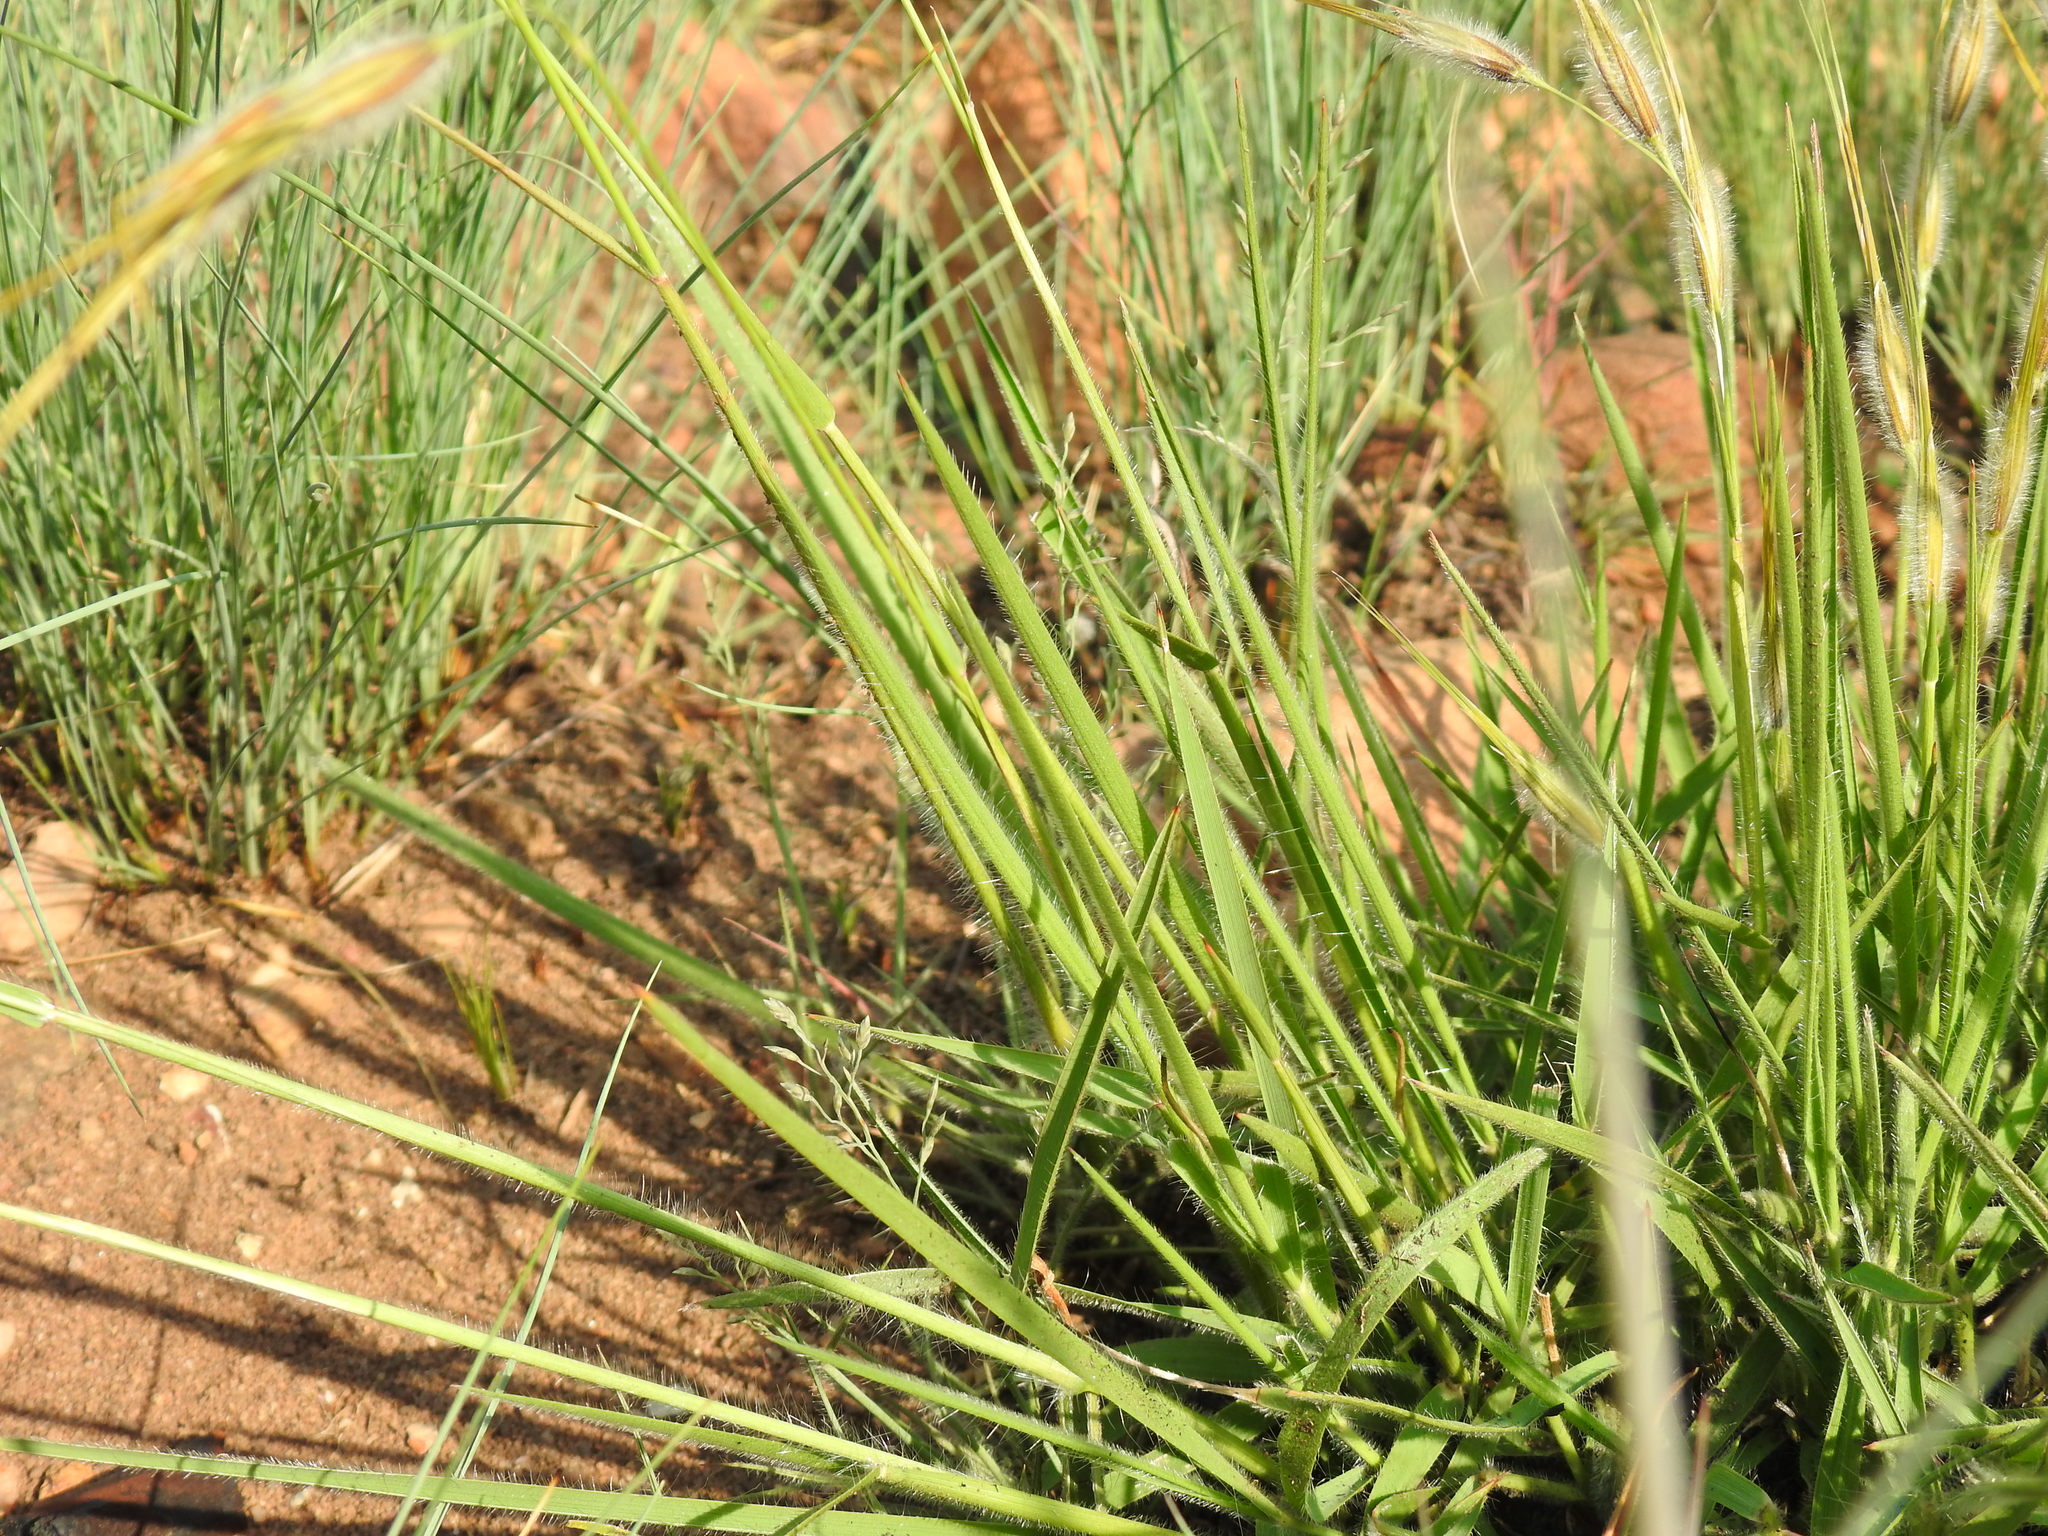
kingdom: Plantae
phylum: Tracheophyta
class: Liliopsida
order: Poales
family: Poaceae
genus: Tristachya
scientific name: Tristachya biseriata
